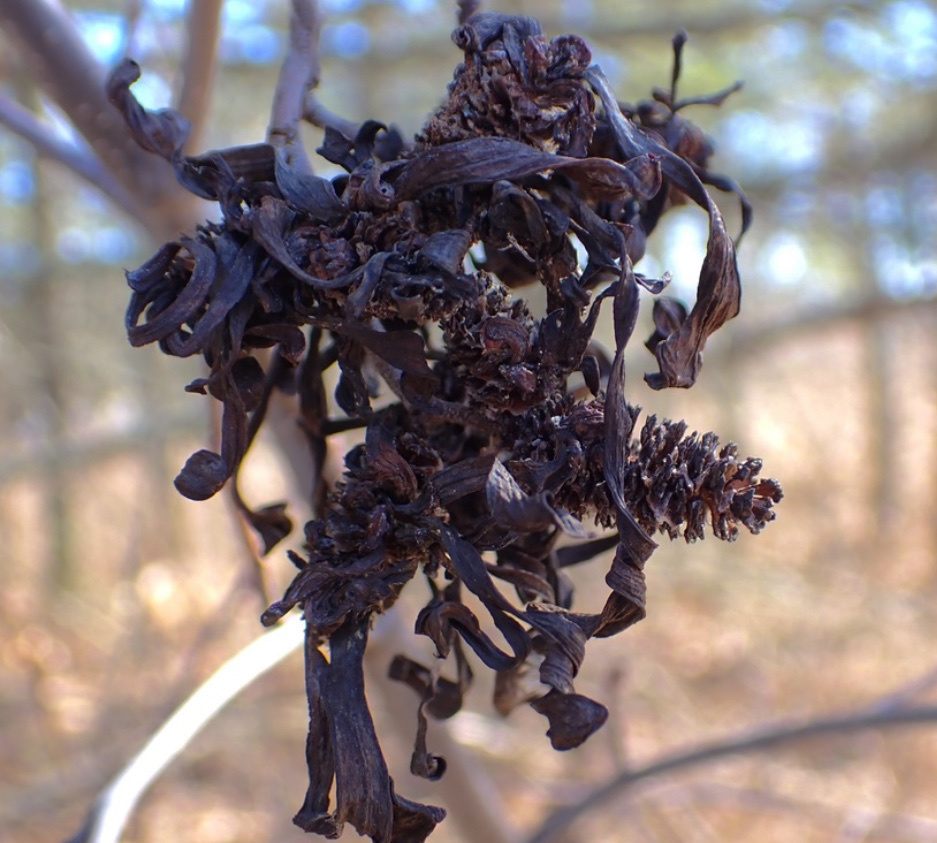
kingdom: Fungi
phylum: Ascomycota
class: Taphrinomycetes
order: Taphrinales
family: Taphrinaceae
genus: Taphrina
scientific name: Taphrina robinsoniana
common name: Eastern american alder tongue gall fungus
